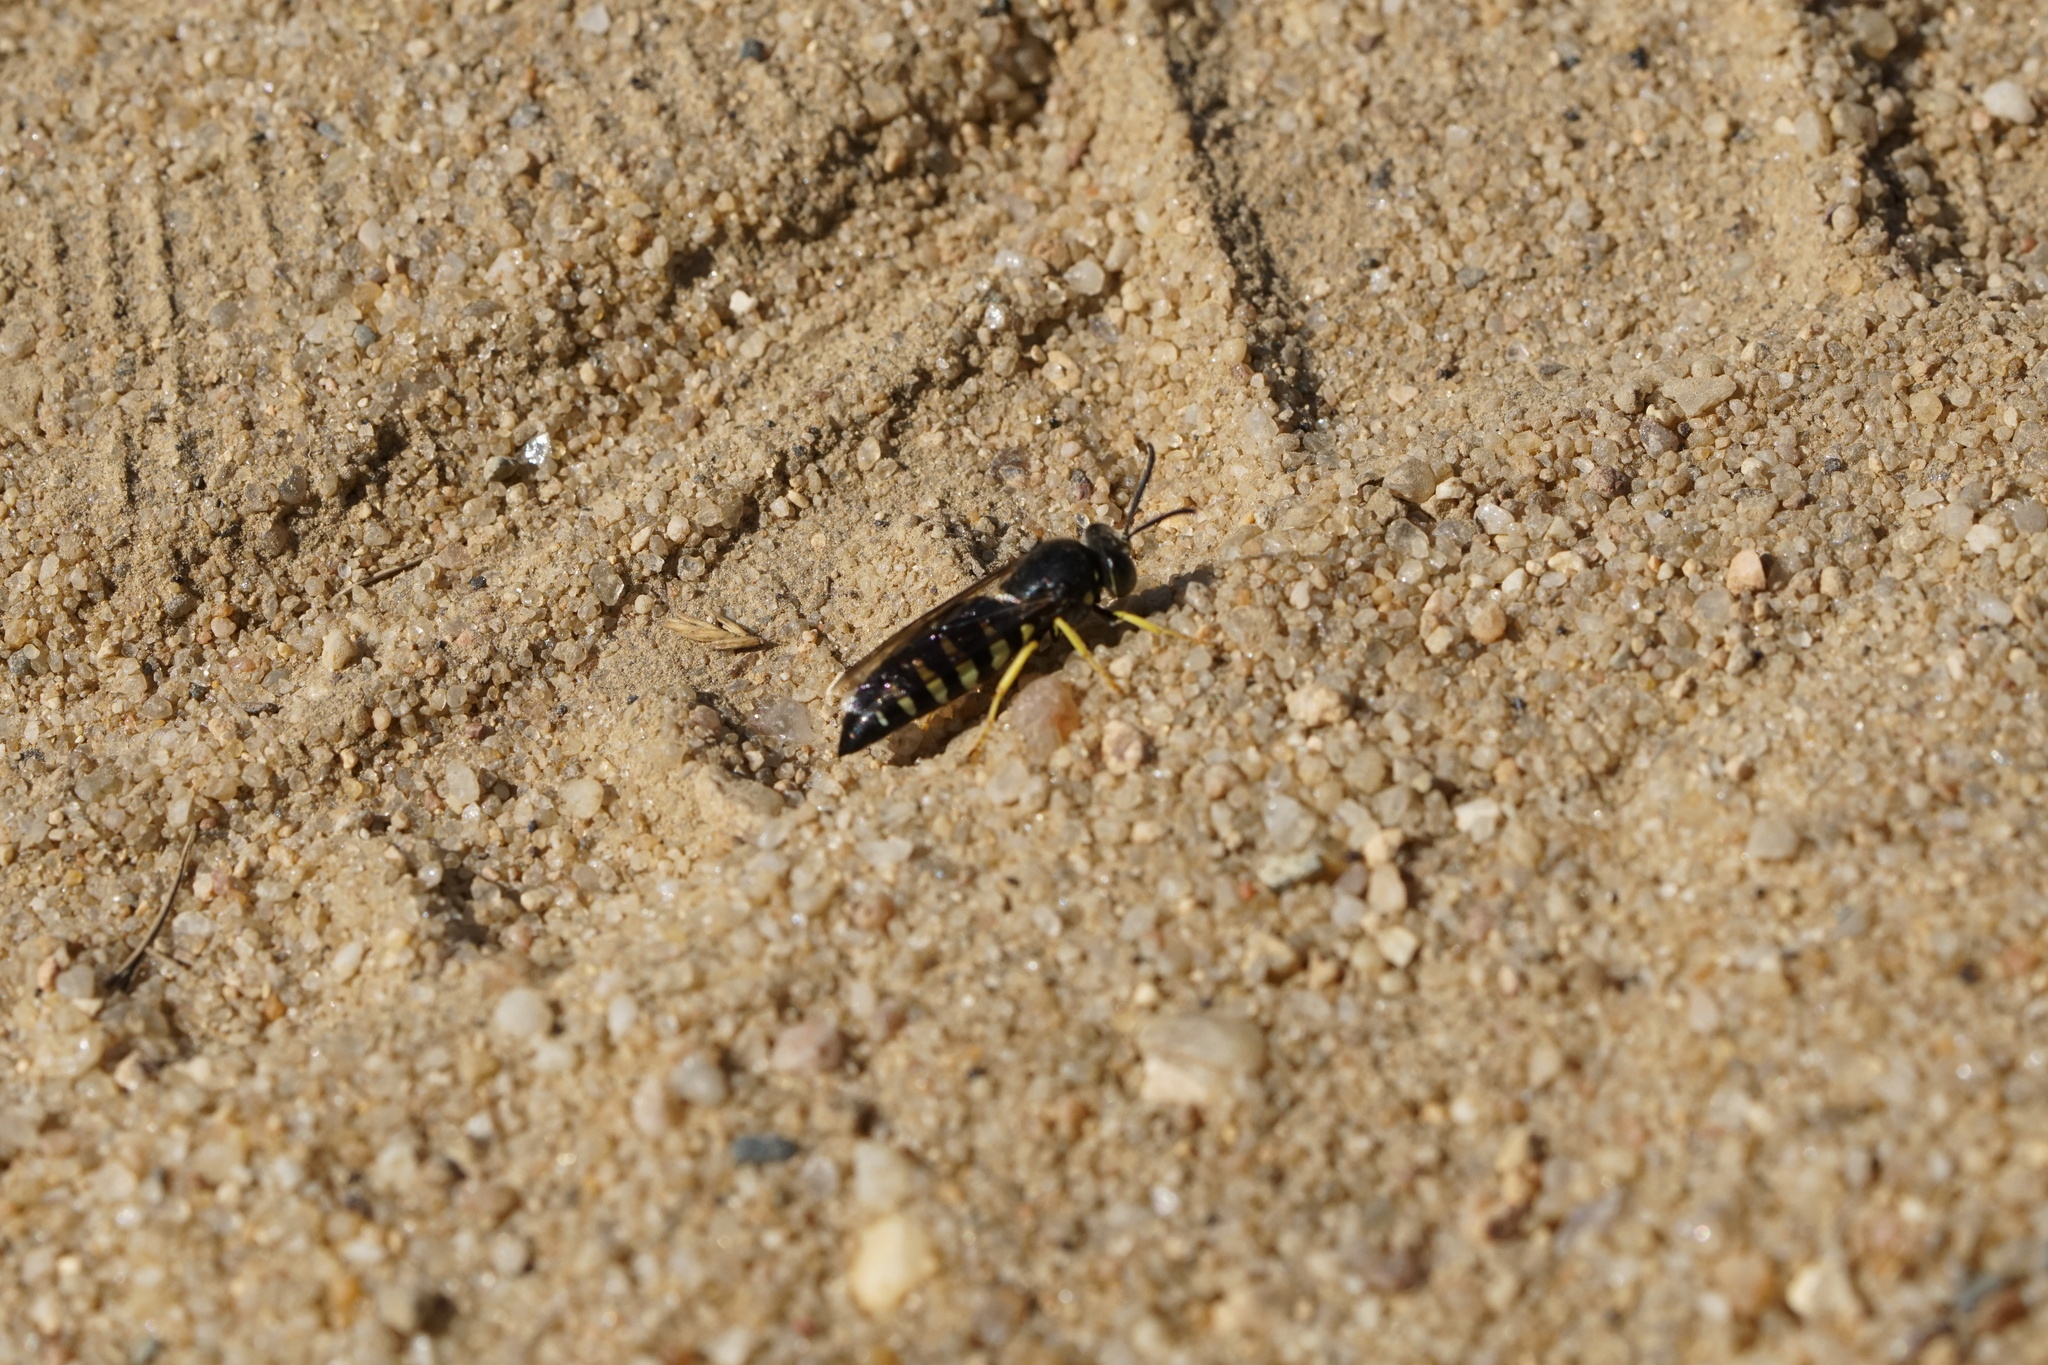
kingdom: Animalia
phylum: Arthropoda
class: Insecta
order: Hymenoptera
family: Crabronidae
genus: Bicyrtes
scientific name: Bicyrtes quadrifasciatus
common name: Four-banded stink bug hunter wasp
